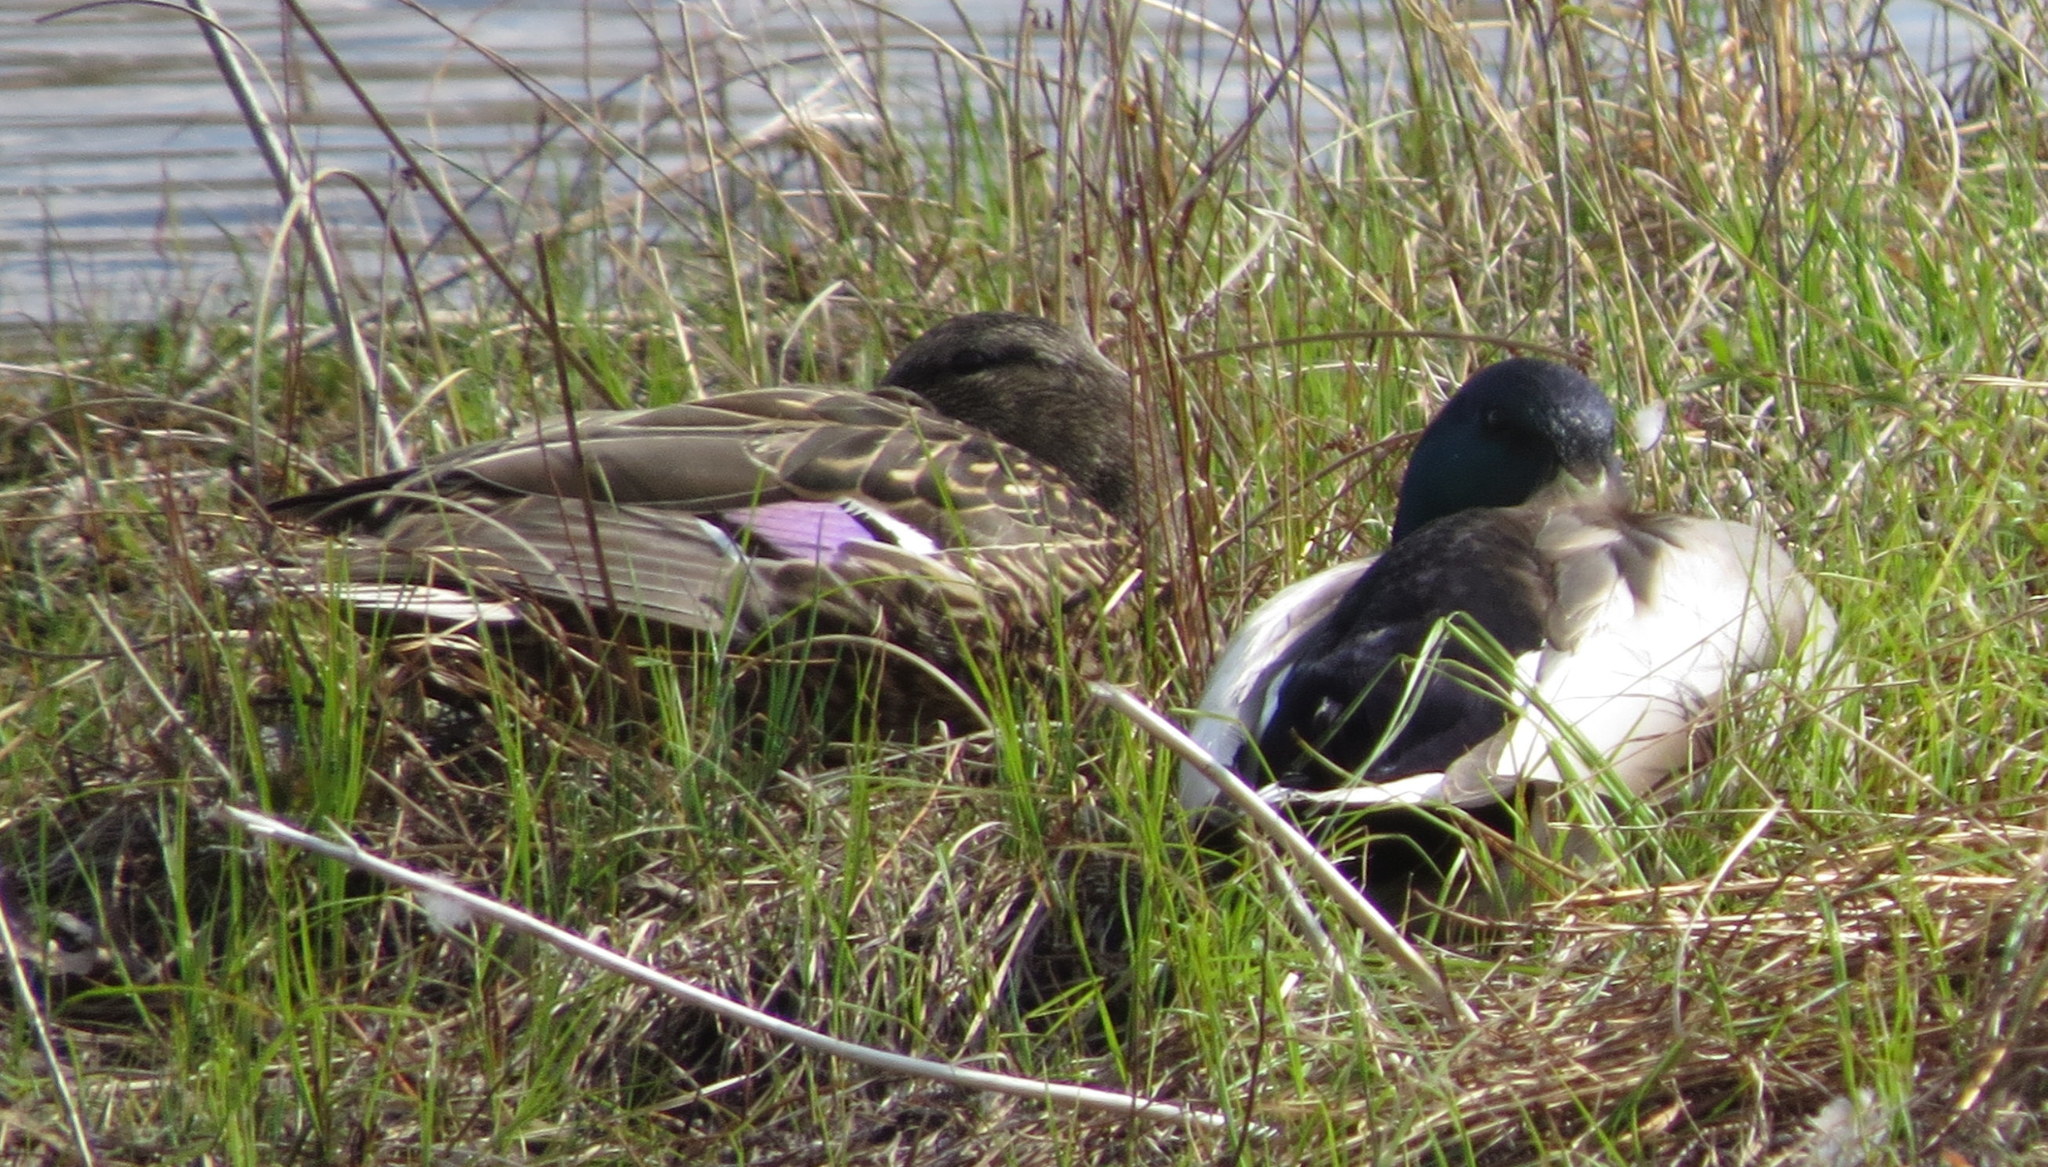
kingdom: Animalia
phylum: Chordata
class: Aves
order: Anseriformes
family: Anatidae
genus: Anas
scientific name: Anas platyrhynchos
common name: Mallard
